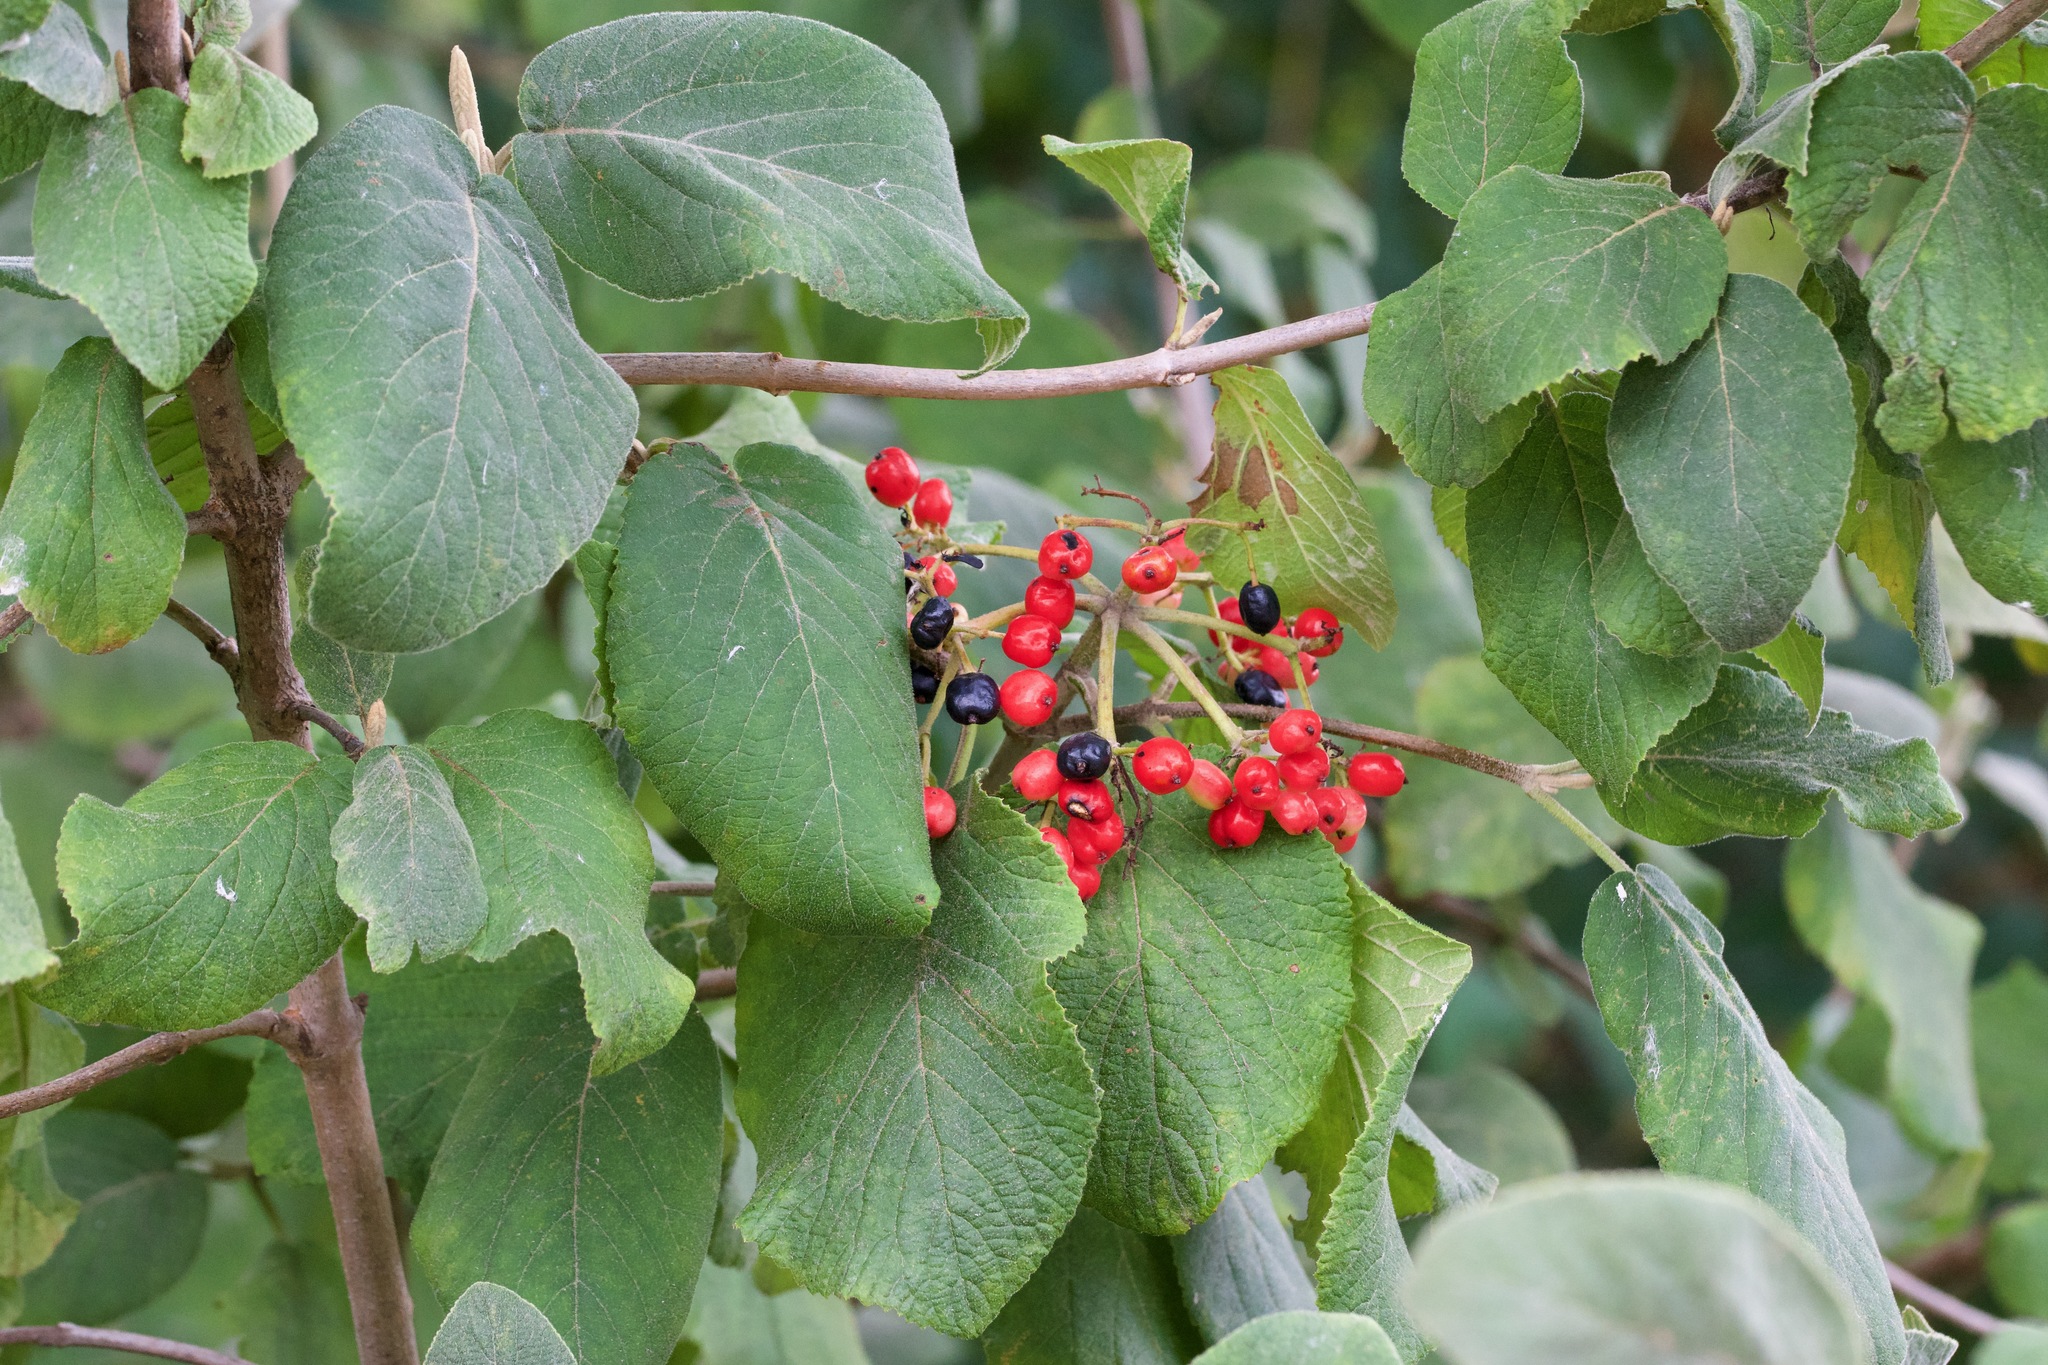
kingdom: Plantae
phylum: Tracheophyta
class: Magnoliopsida
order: Dipsacales
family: Viburnaceae
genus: Viburnum
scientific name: Viburnum lantana
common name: Wayfaring tree
